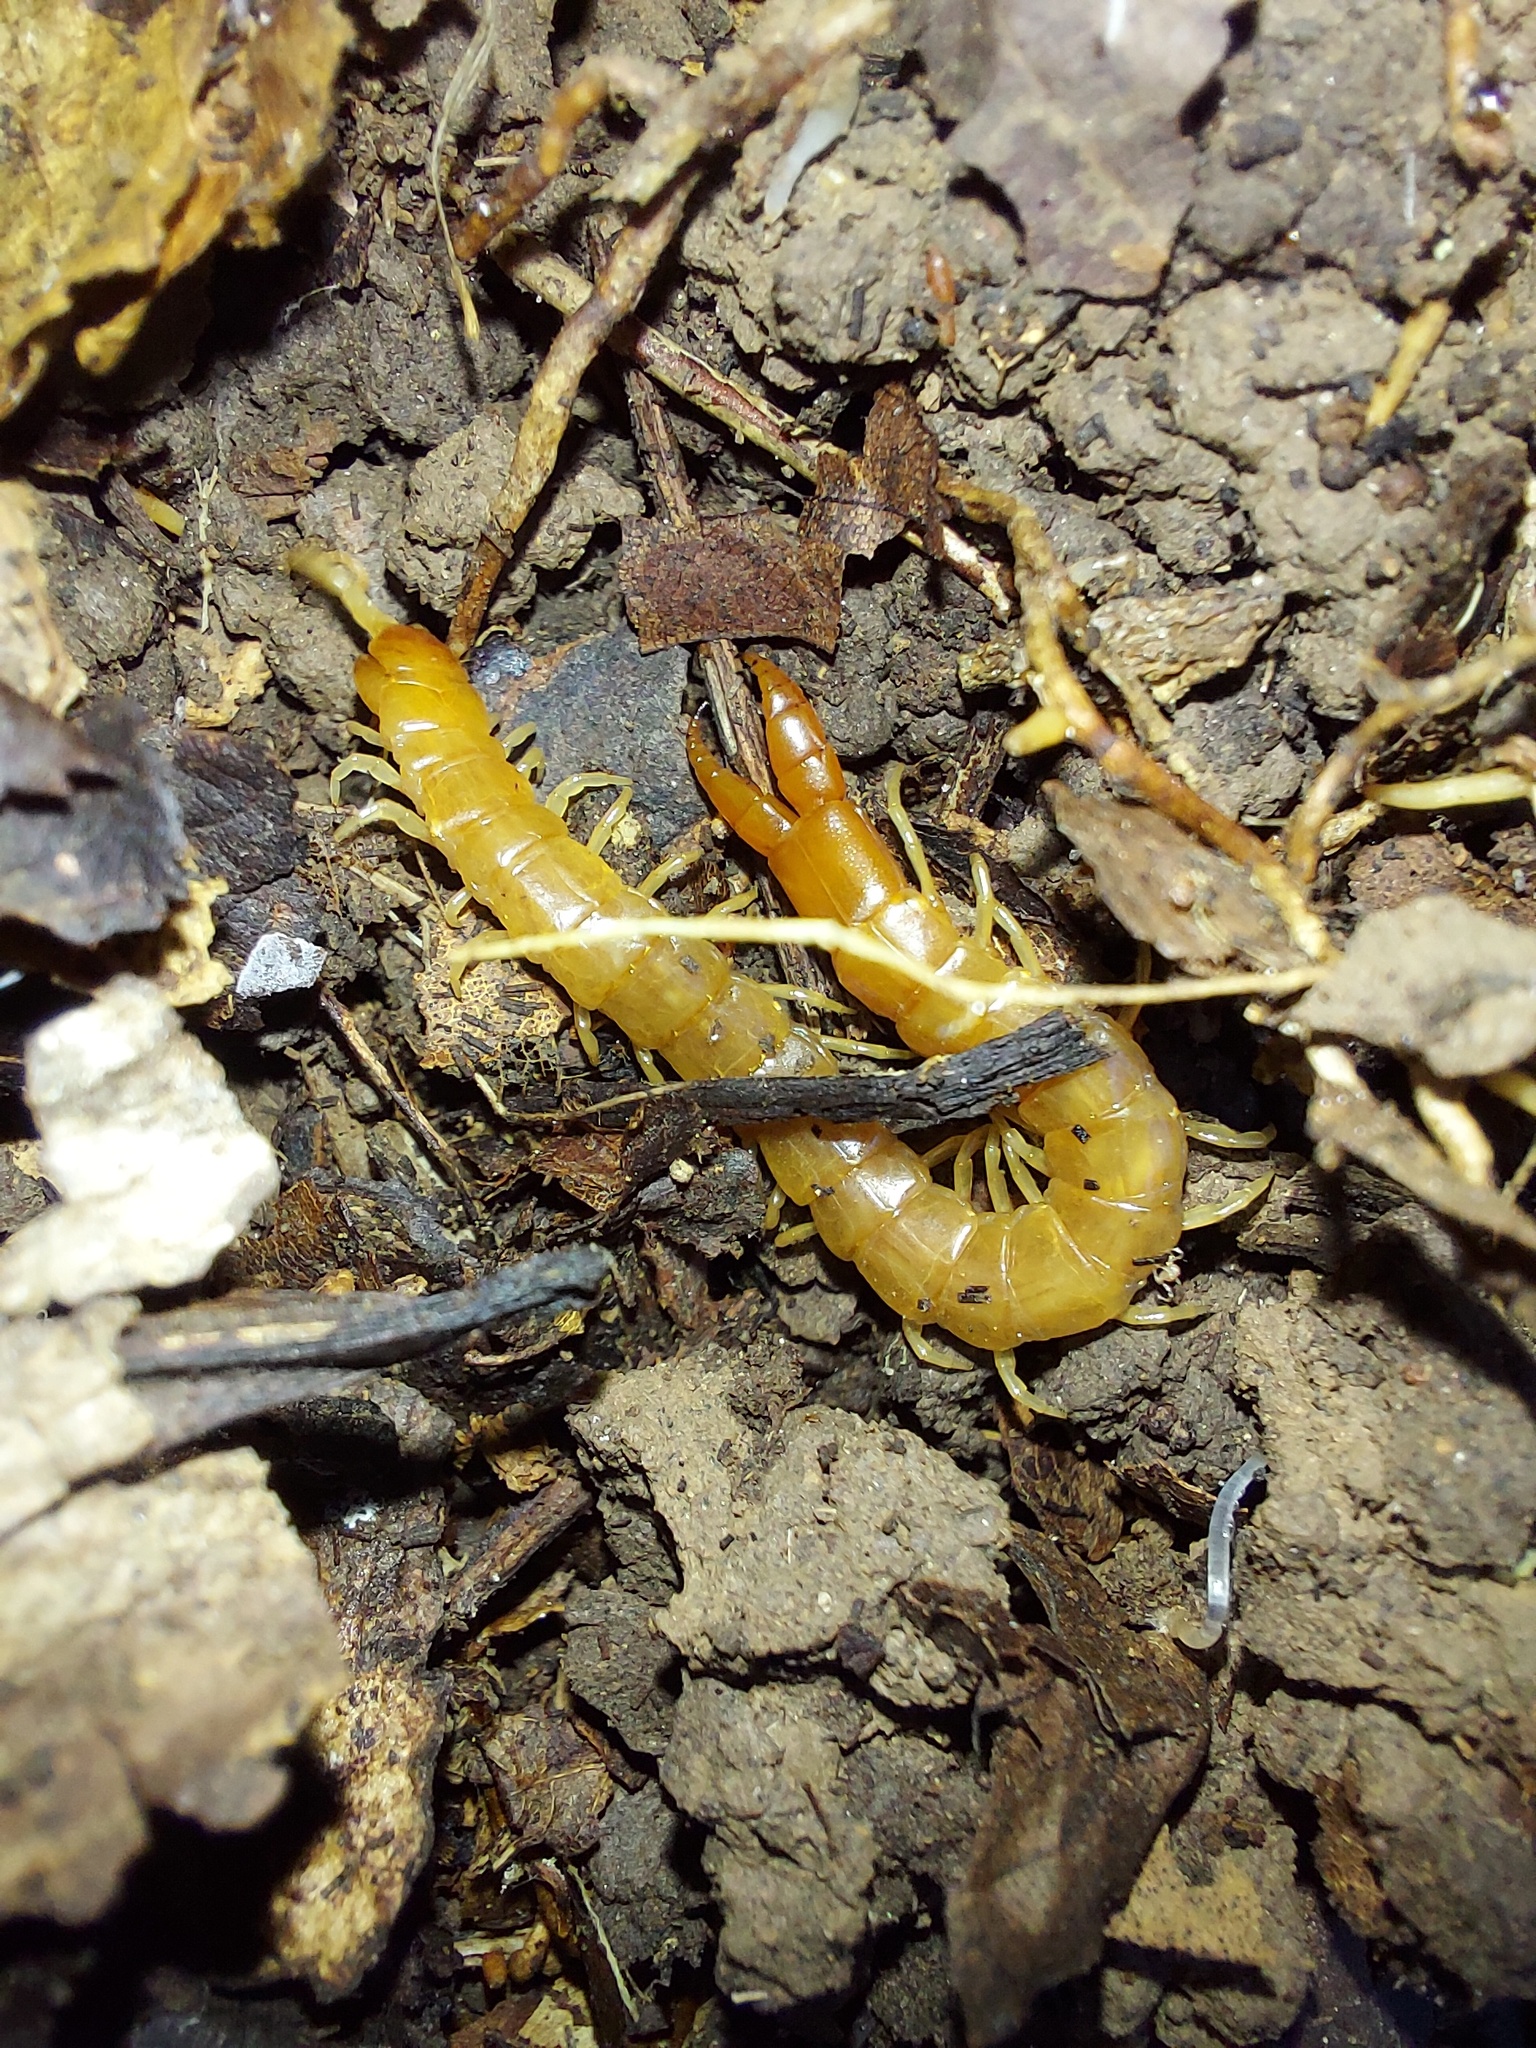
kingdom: Animalia
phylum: Arthropoda
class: Chilopoda
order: Scolopendromorpha
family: Cryptopidae
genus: Theatops
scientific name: Theatops posticus
